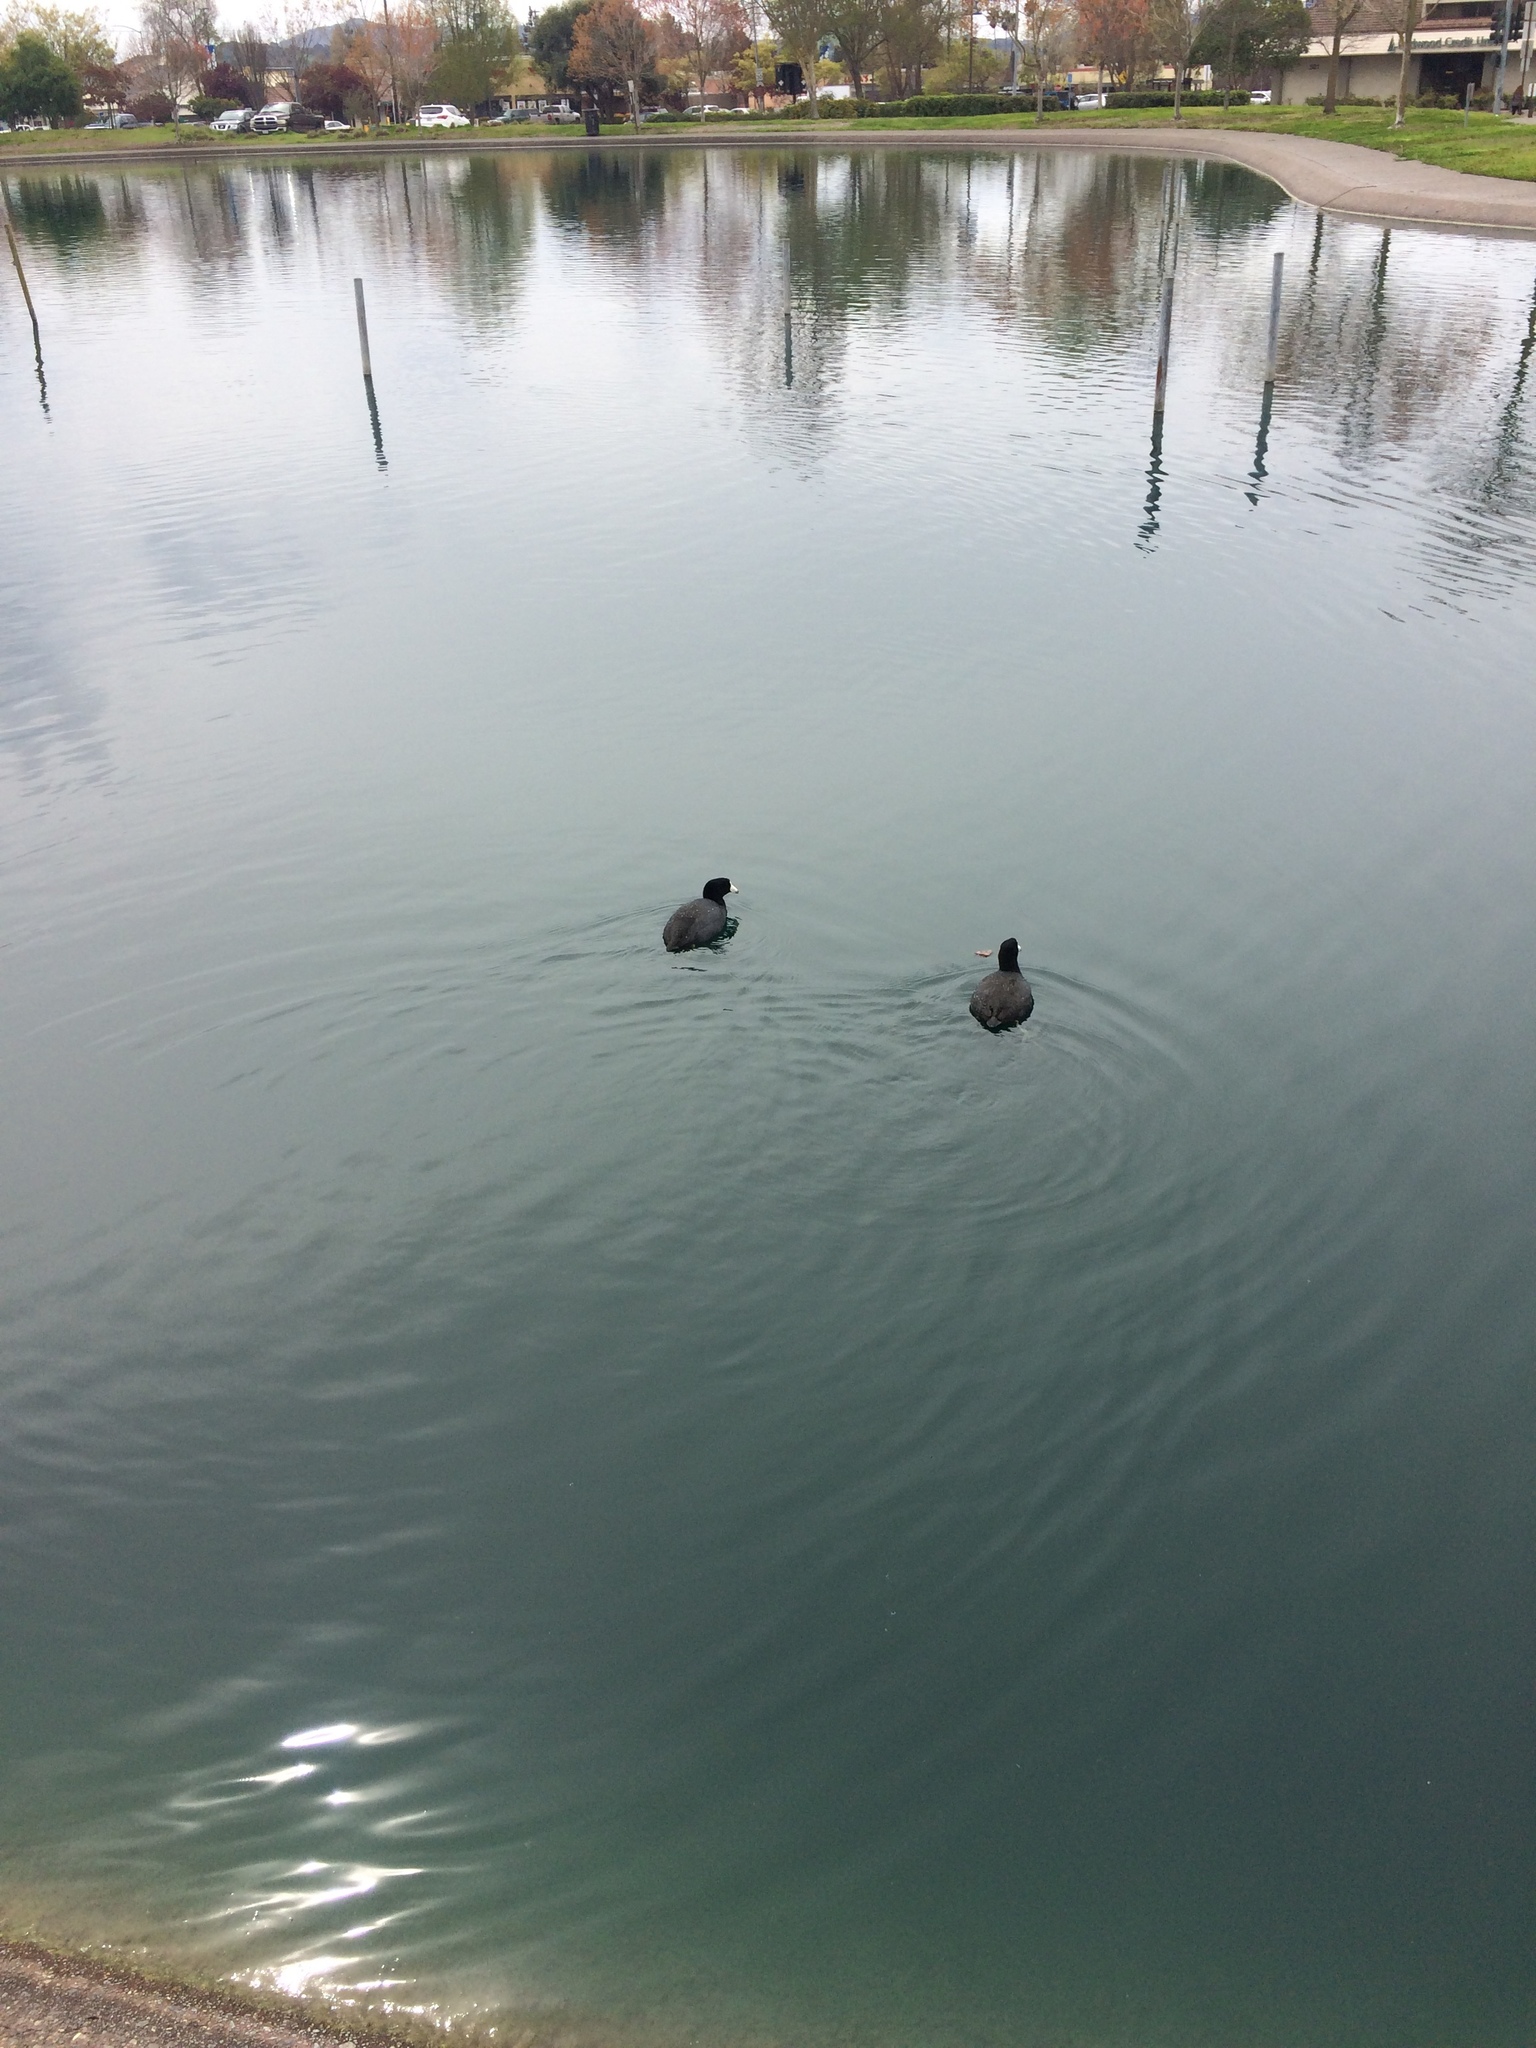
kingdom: Animalia
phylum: Chordata
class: Aves
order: Gruiformes
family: Rallidae
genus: Fulica
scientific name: Fulica americana
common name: American coot
